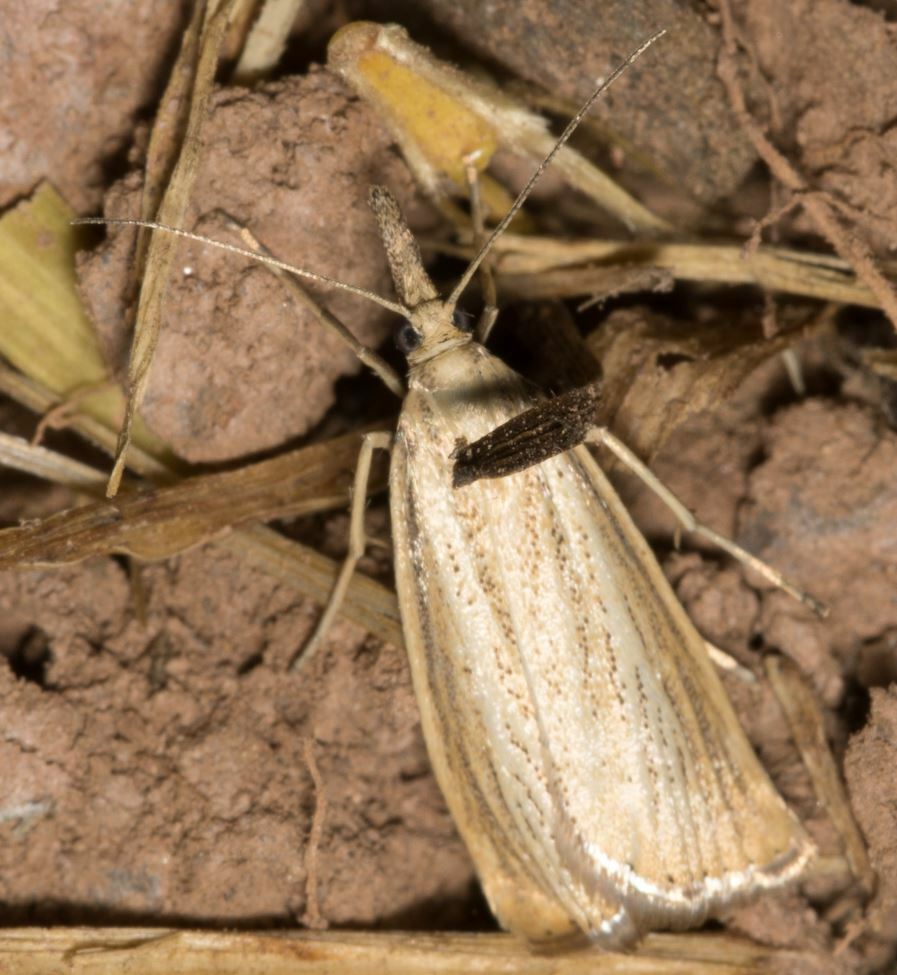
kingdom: Animalia
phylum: Arthropoda
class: Insecta
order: Lepidoptera
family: Crambidae
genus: Agriphila
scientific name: Agriphila straminella
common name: Straw grass-veneer
